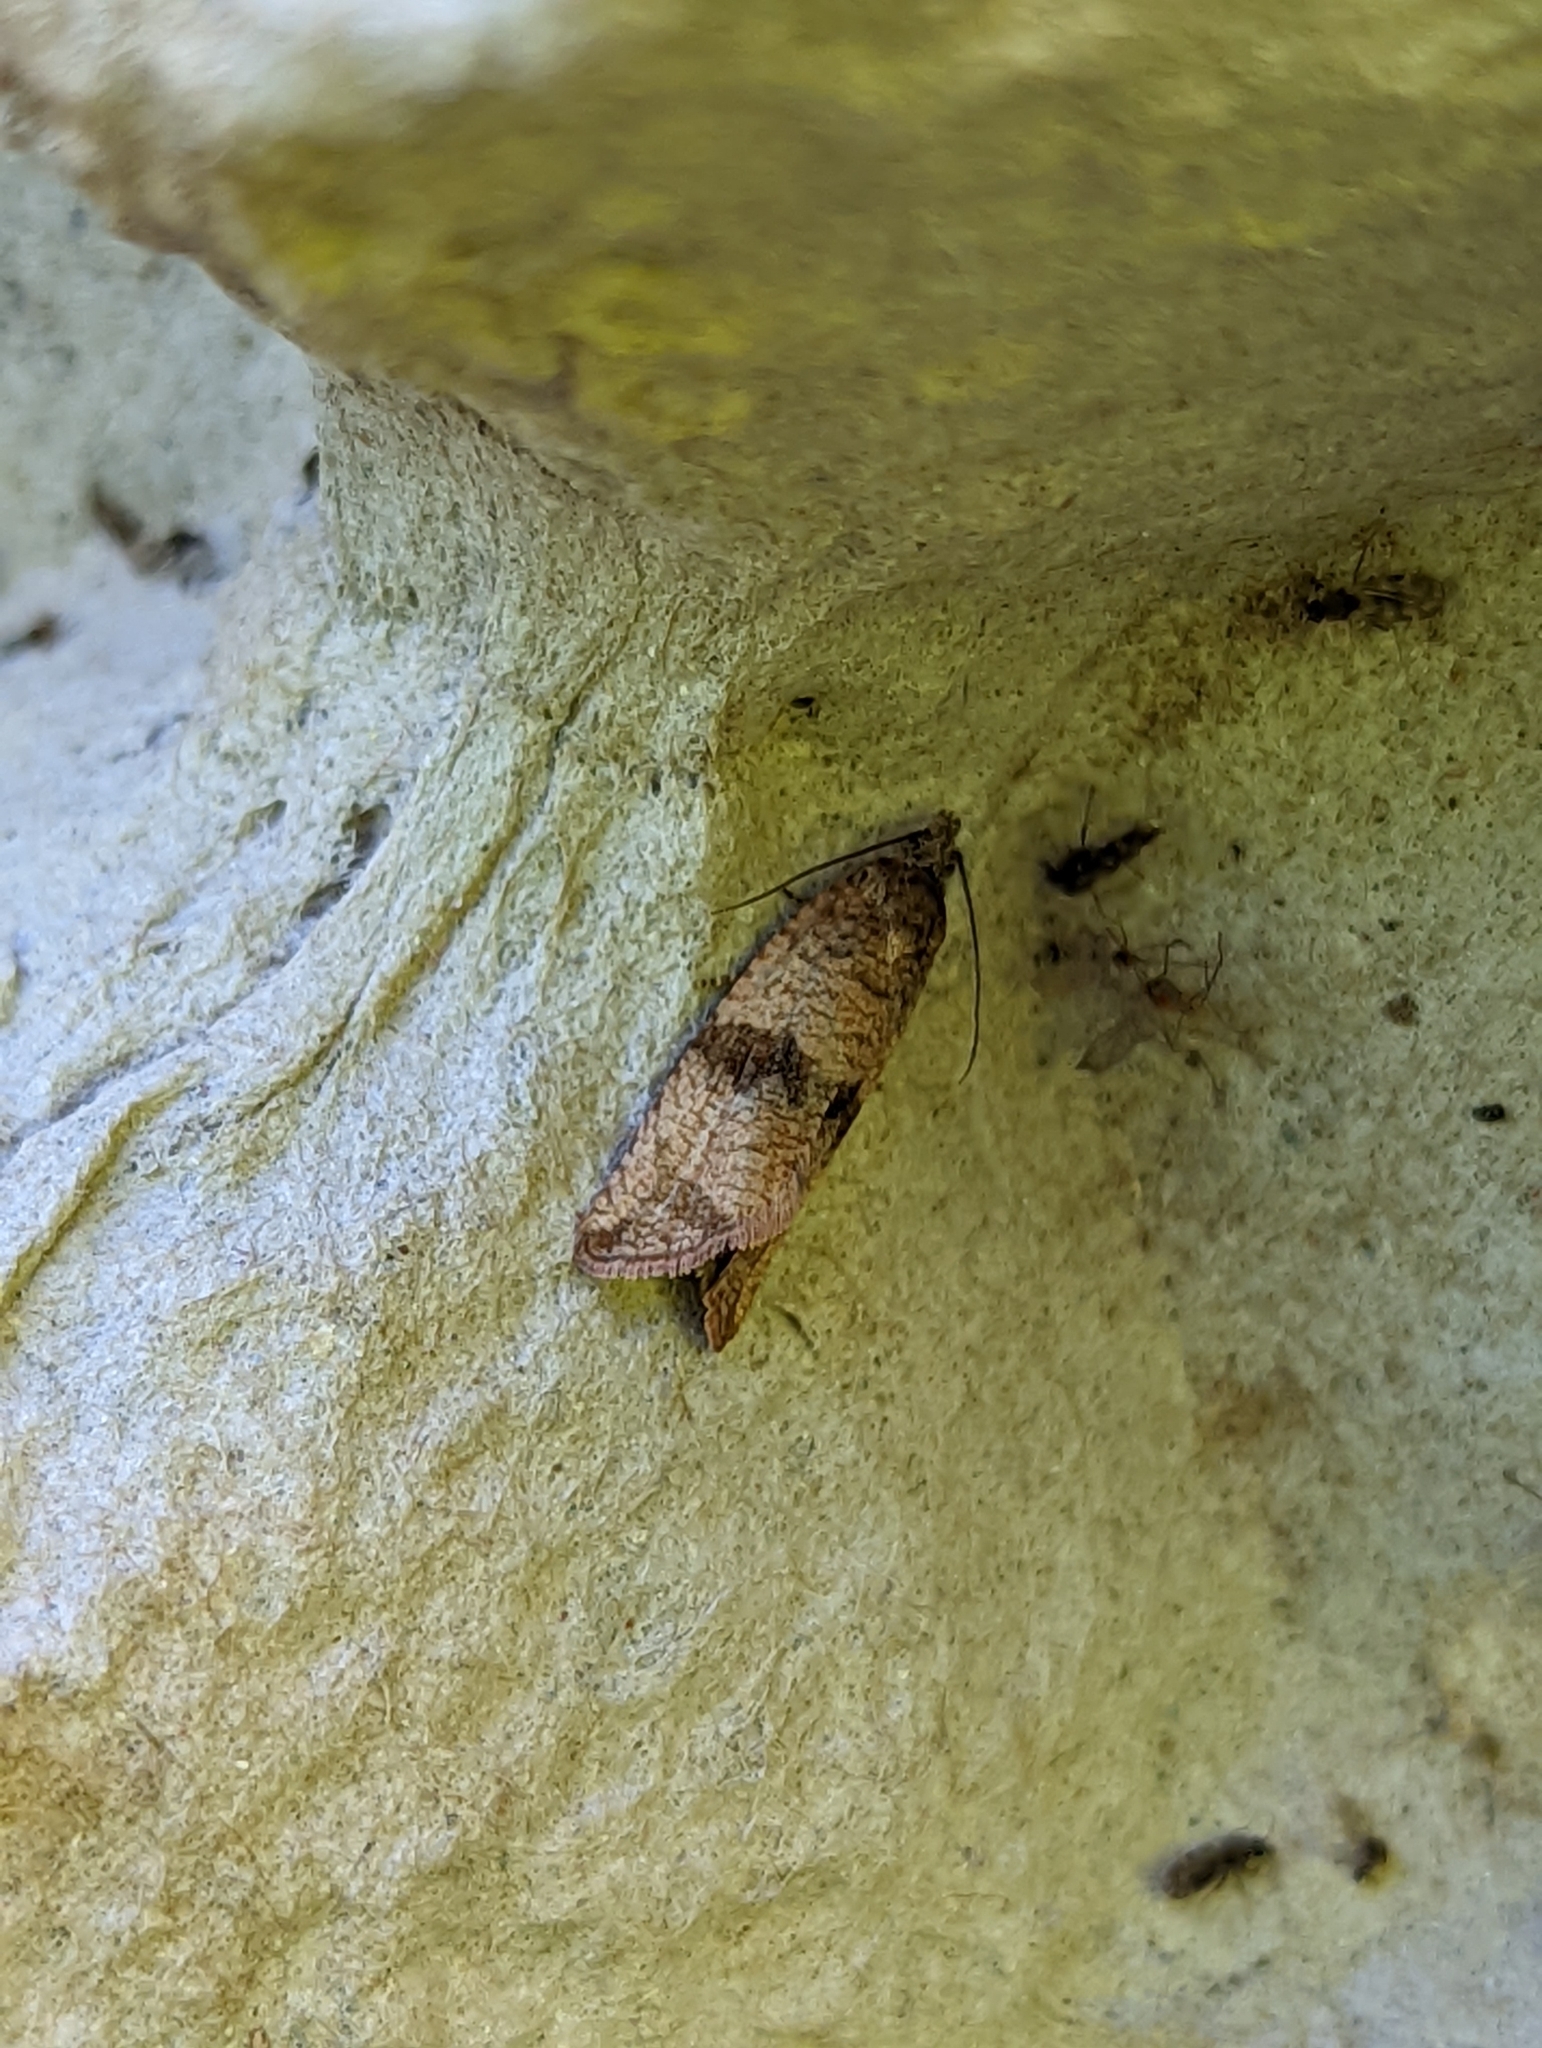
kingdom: Animalia
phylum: Arthropoda
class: Insecta
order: Lepidoptera
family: Tortricidae
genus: Celypha
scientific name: Celypha striana
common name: Barred marble
